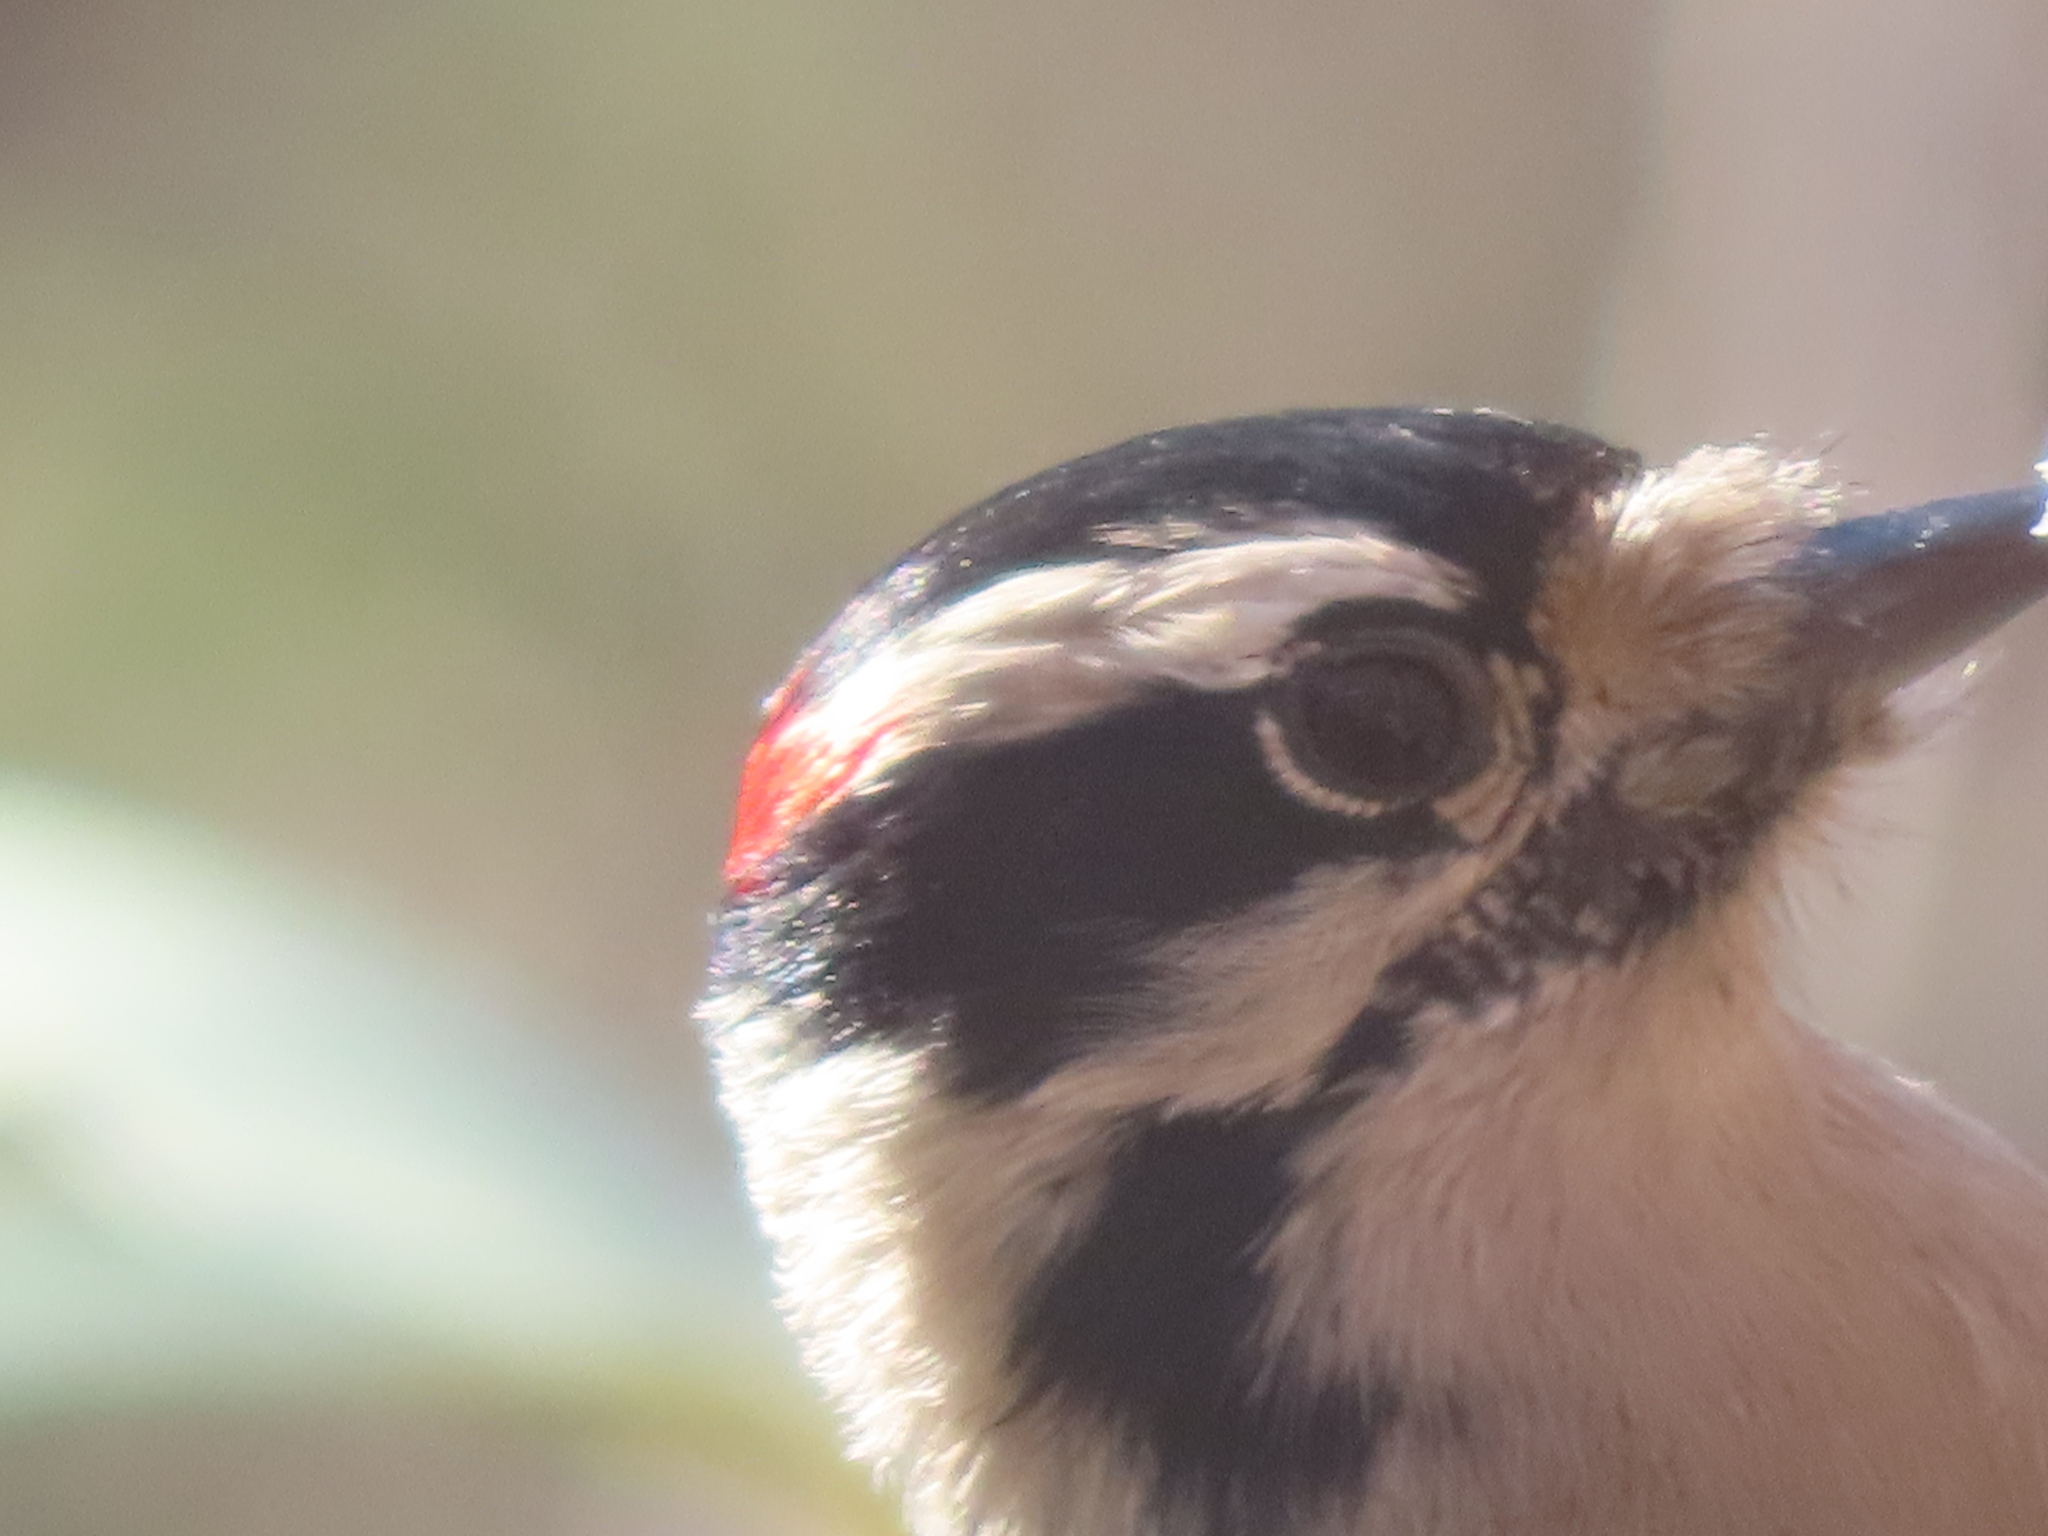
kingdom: Animalia
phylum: Chordata
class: Aves
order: Piciformes
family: Picidae
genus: Dryobates
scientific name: Dryobates pubescens
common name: Downy woodpecker
